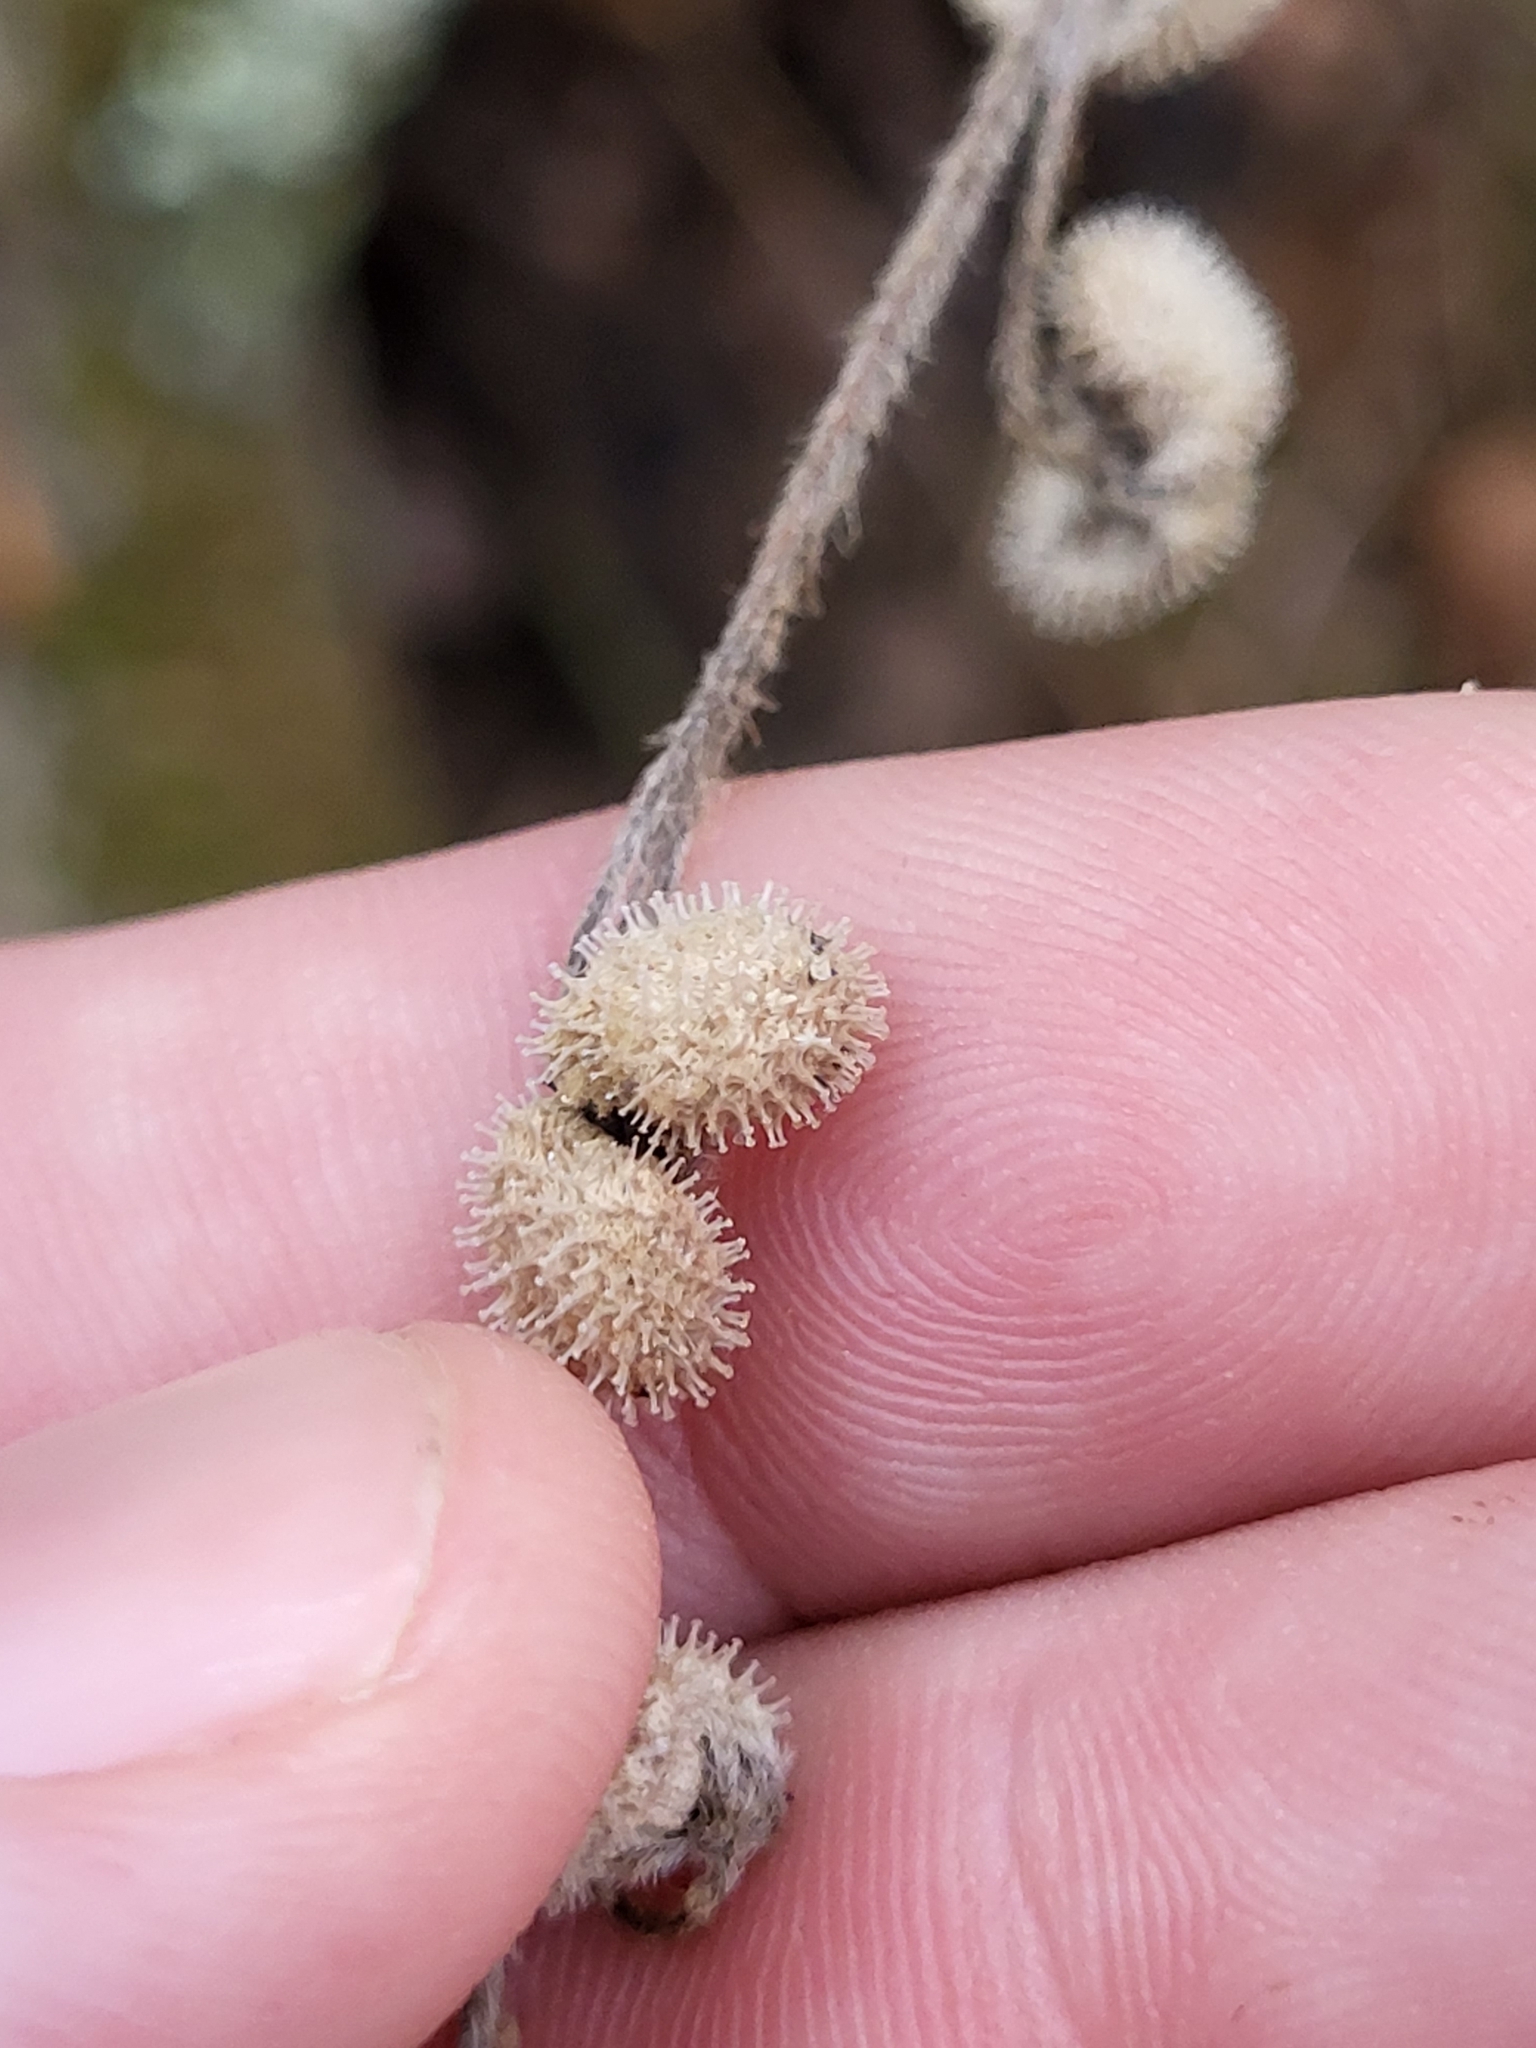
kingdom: Plantae
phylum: Tracheophyta
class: Magnoliopsida
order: Boraginales
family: Boraginaceae
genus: Andersonglossum
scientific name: Andersonglossum virginianum
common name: Wild comfrey
